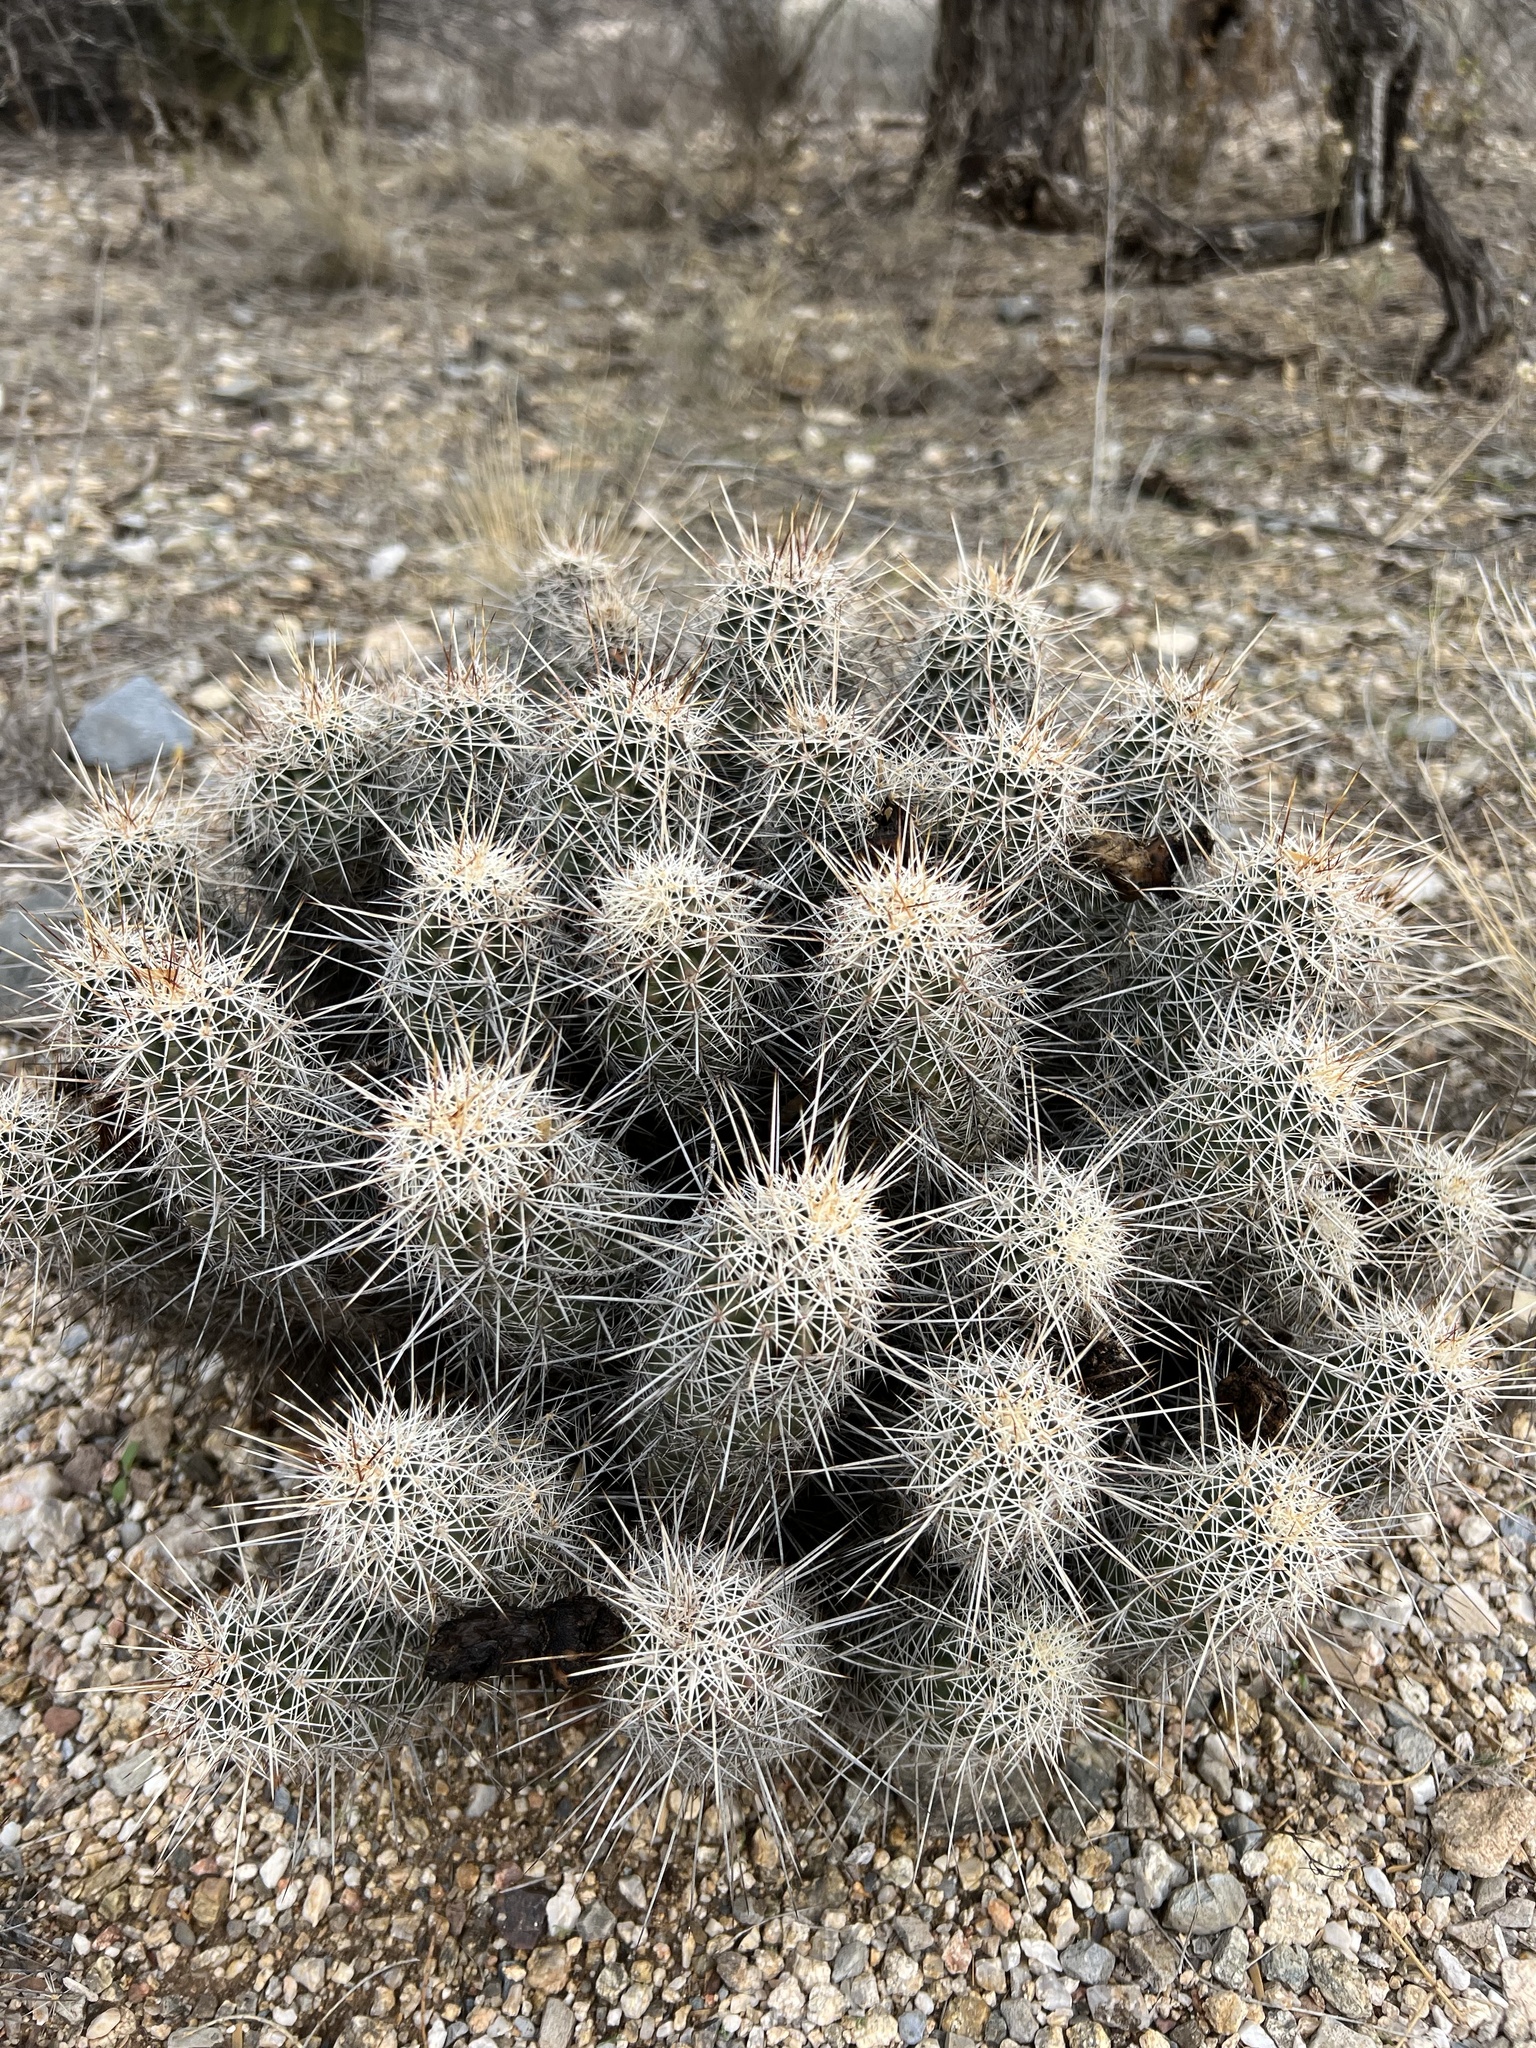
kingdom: Plantae
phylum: Tracheophyta
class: Magnoliopsida
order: Caryophyllales
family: Cactaceae
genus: Echinocereus
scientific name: Echinocereus fasciculatus
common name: Bundle hedgehog
